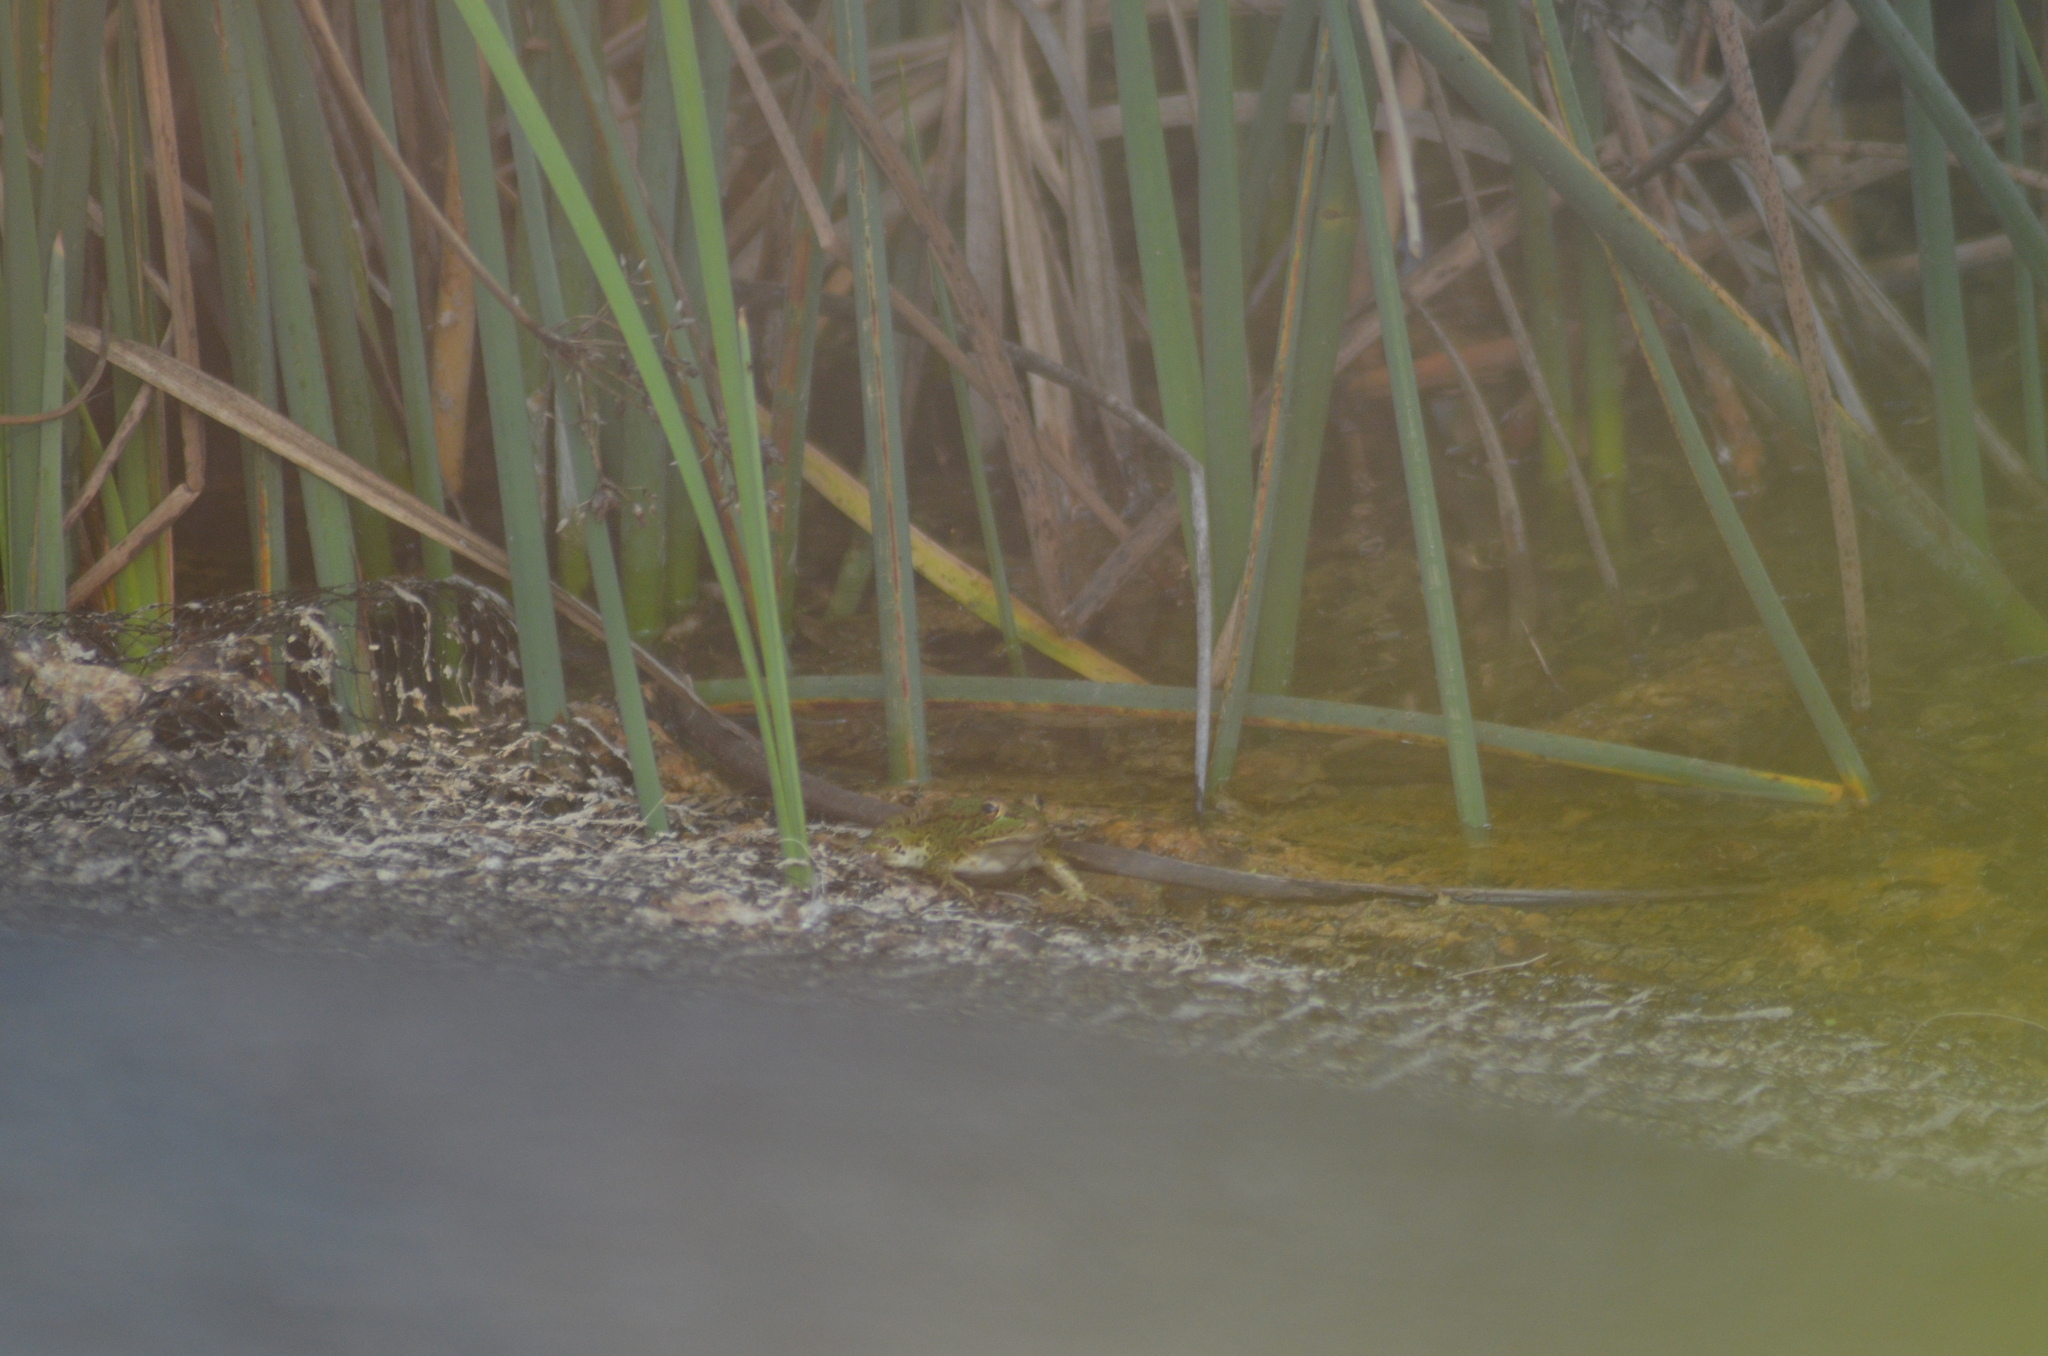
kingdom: Animalia
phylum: Chordata
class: Amphibia
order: Anura
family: Ranidae
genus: Pelophylax
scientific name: Pelophylax perezi
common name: Perez's frog
